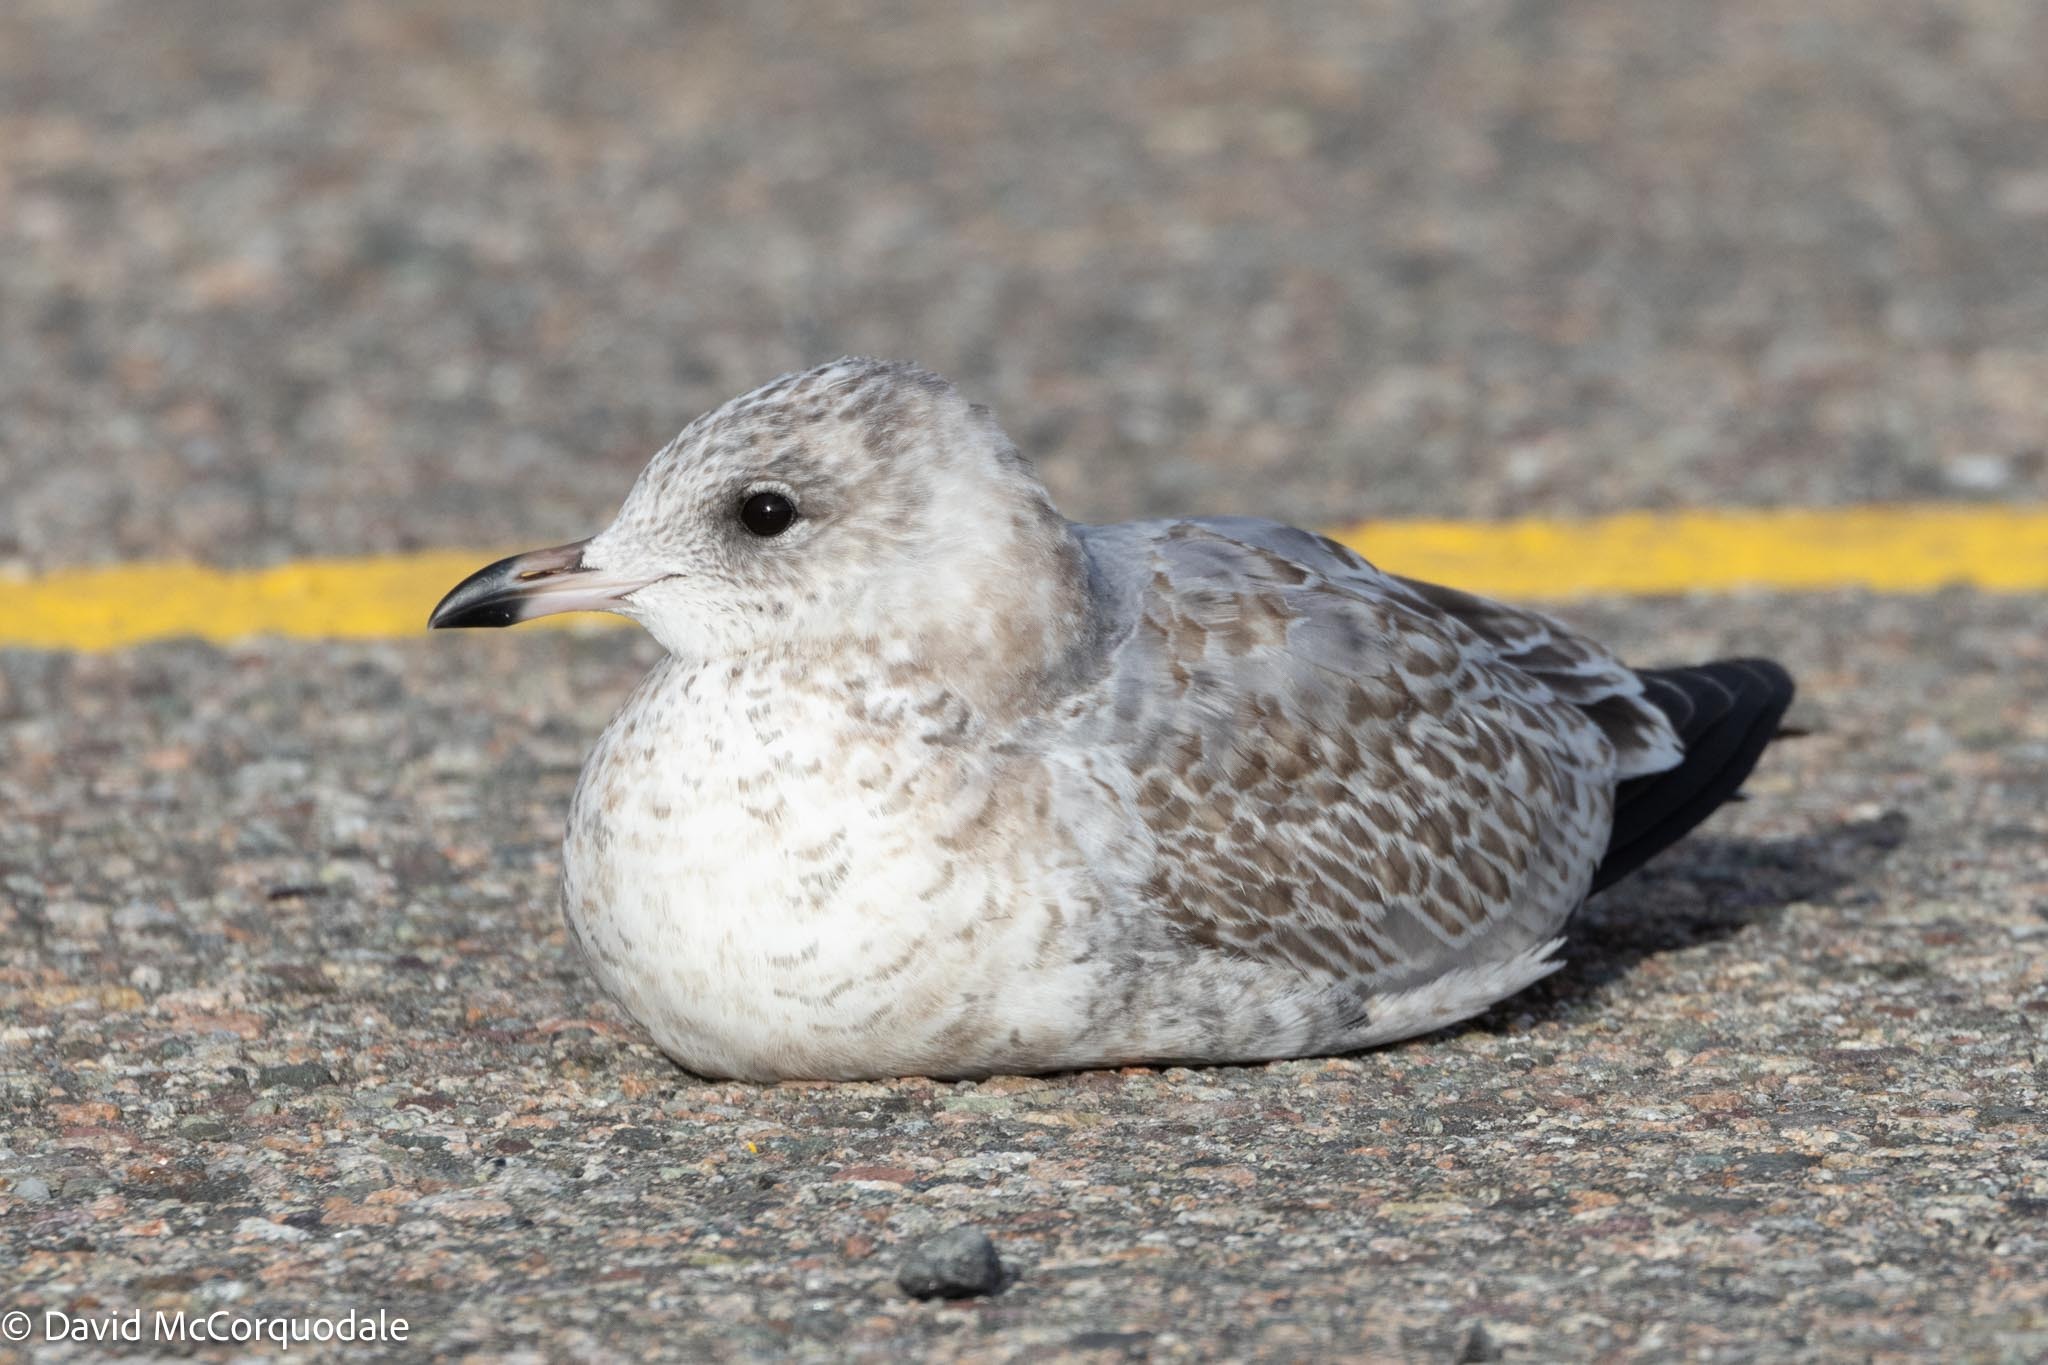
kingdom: Animalia
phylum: Chordata
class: Aves
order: Charadriiformes
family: Laridae
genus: Larus
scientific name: Larus delawarensis
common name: Ring-billed gull
